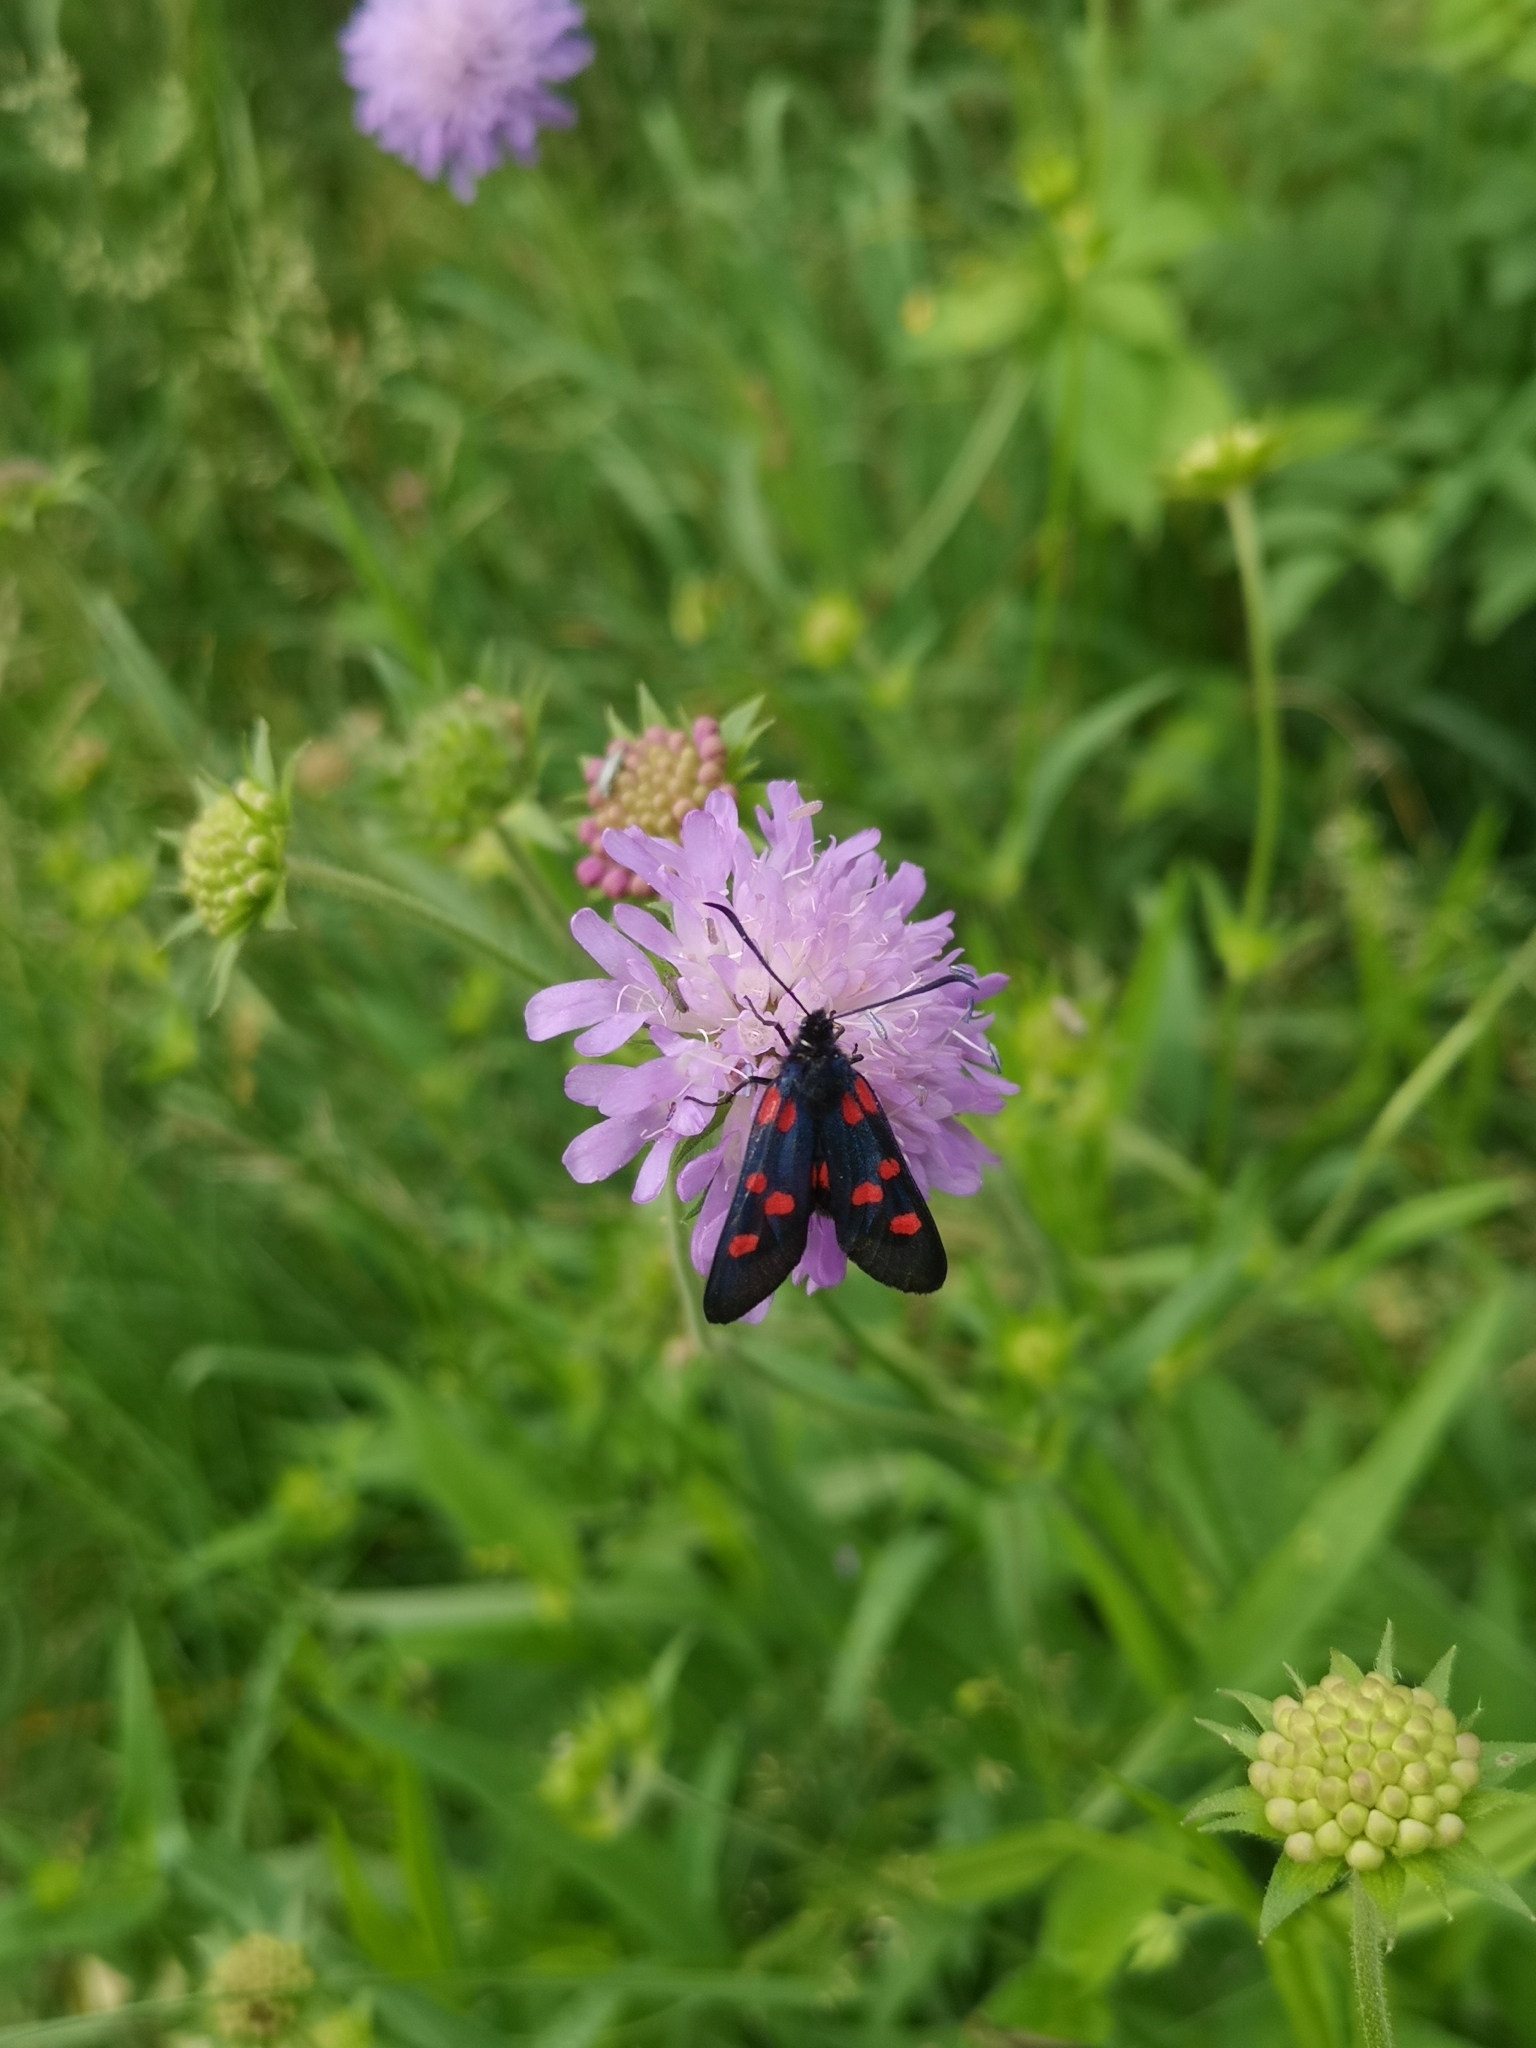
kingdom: Animalia
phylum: Arthropoda
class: Insecta
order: Lepidoptera
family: Zygaenidae
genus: Zygaena
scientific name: Zygaena lonicerae
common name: Narrow-bordered five-spot burnet
